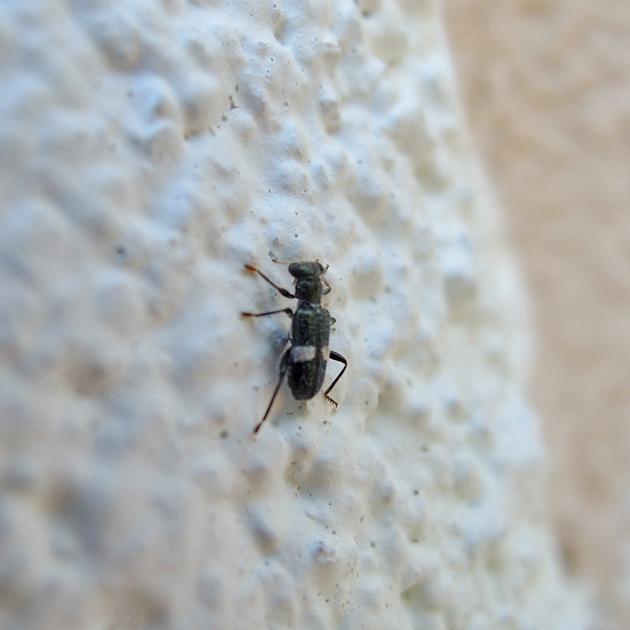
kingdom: Animalia
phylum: Arthropoda
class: Insecta
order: Coleoptera
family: Cleridae
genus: Phyllobaenus
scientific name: Phyllobaenus unifasciatus
